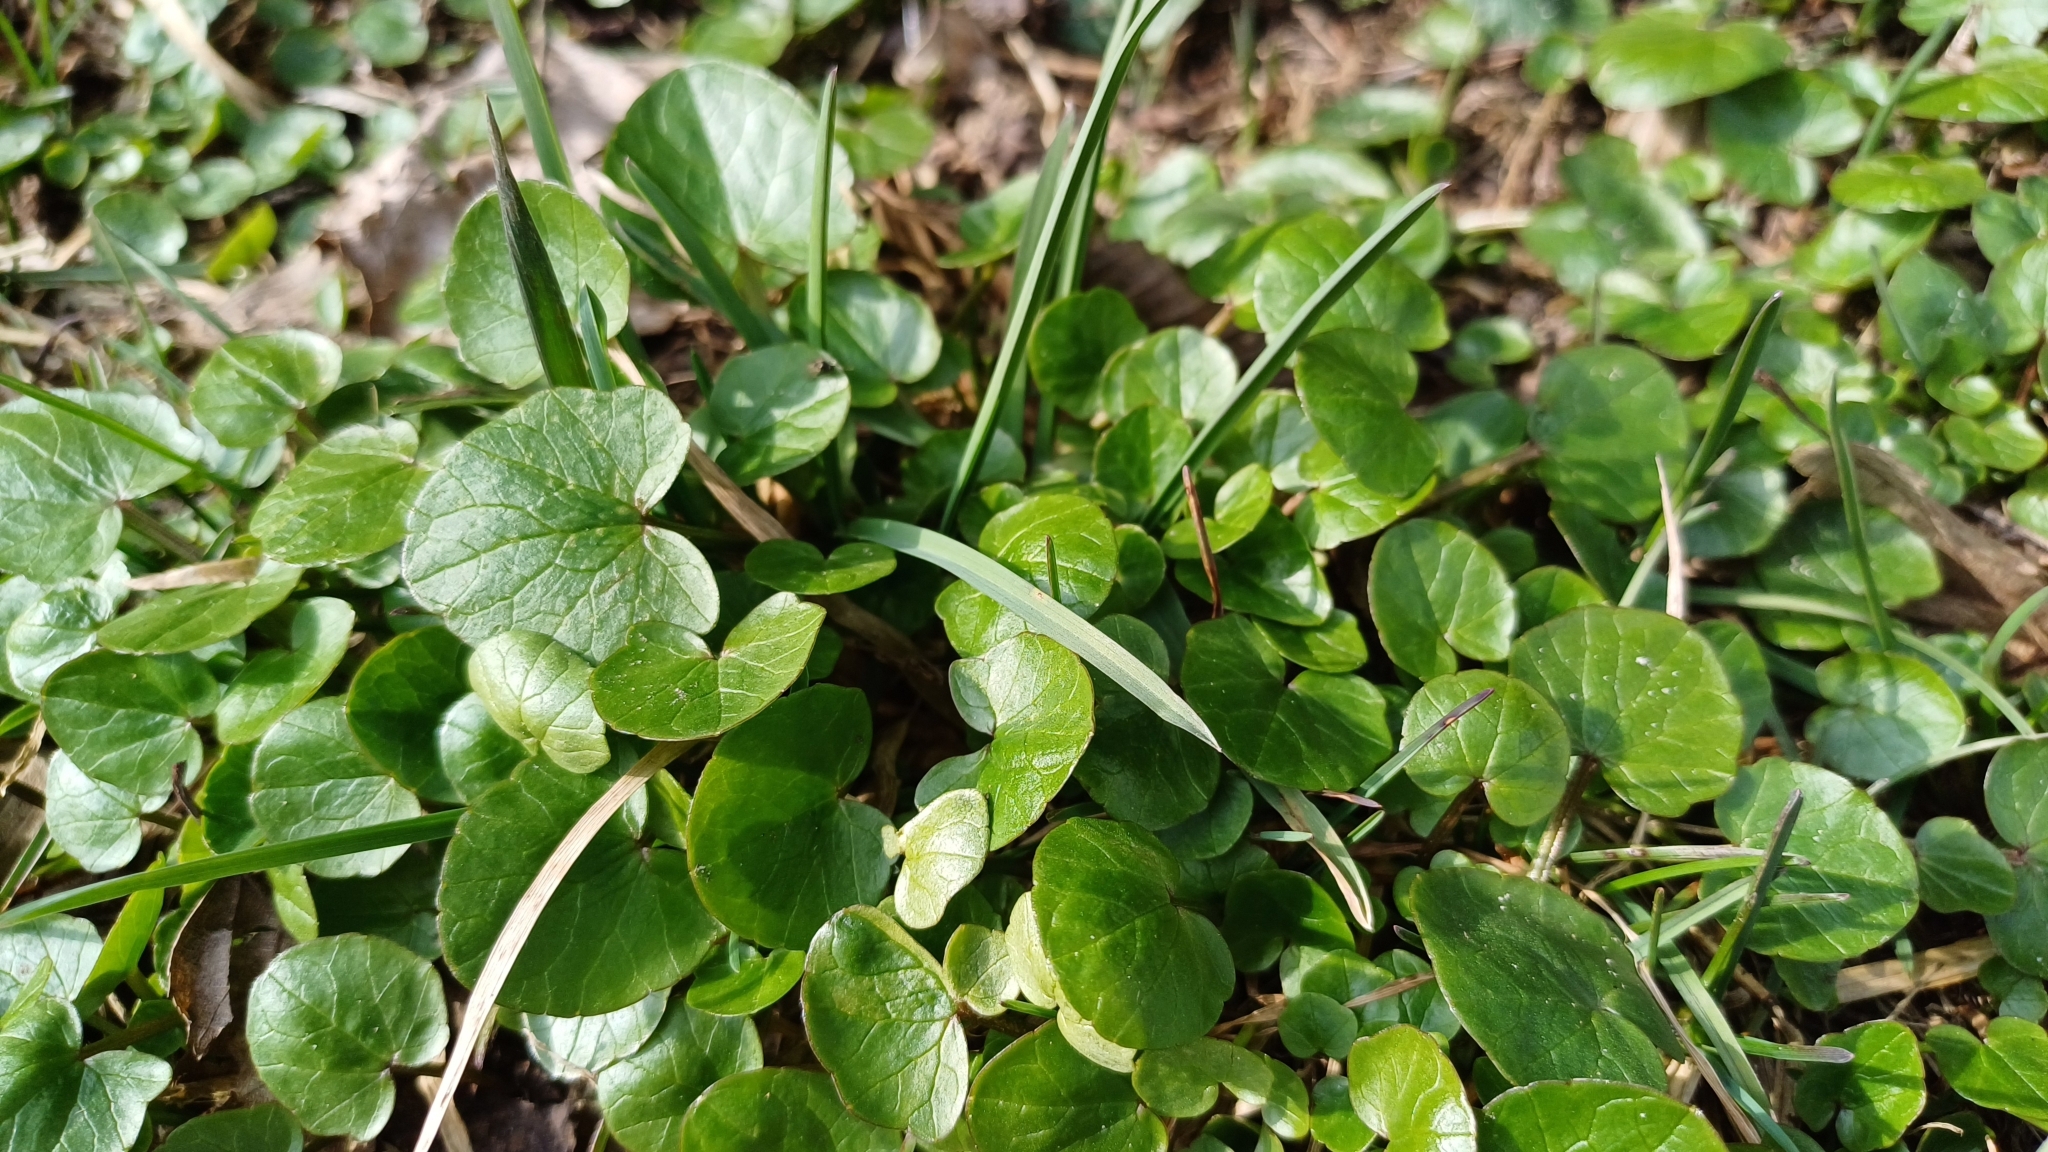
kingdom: Plantae
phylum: Tracheophyta
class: Magnoliopsida
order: Ranunculales
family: Ranunculaceae
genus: Ficaria
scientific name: Ficaria verna
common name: Lesser celandine
